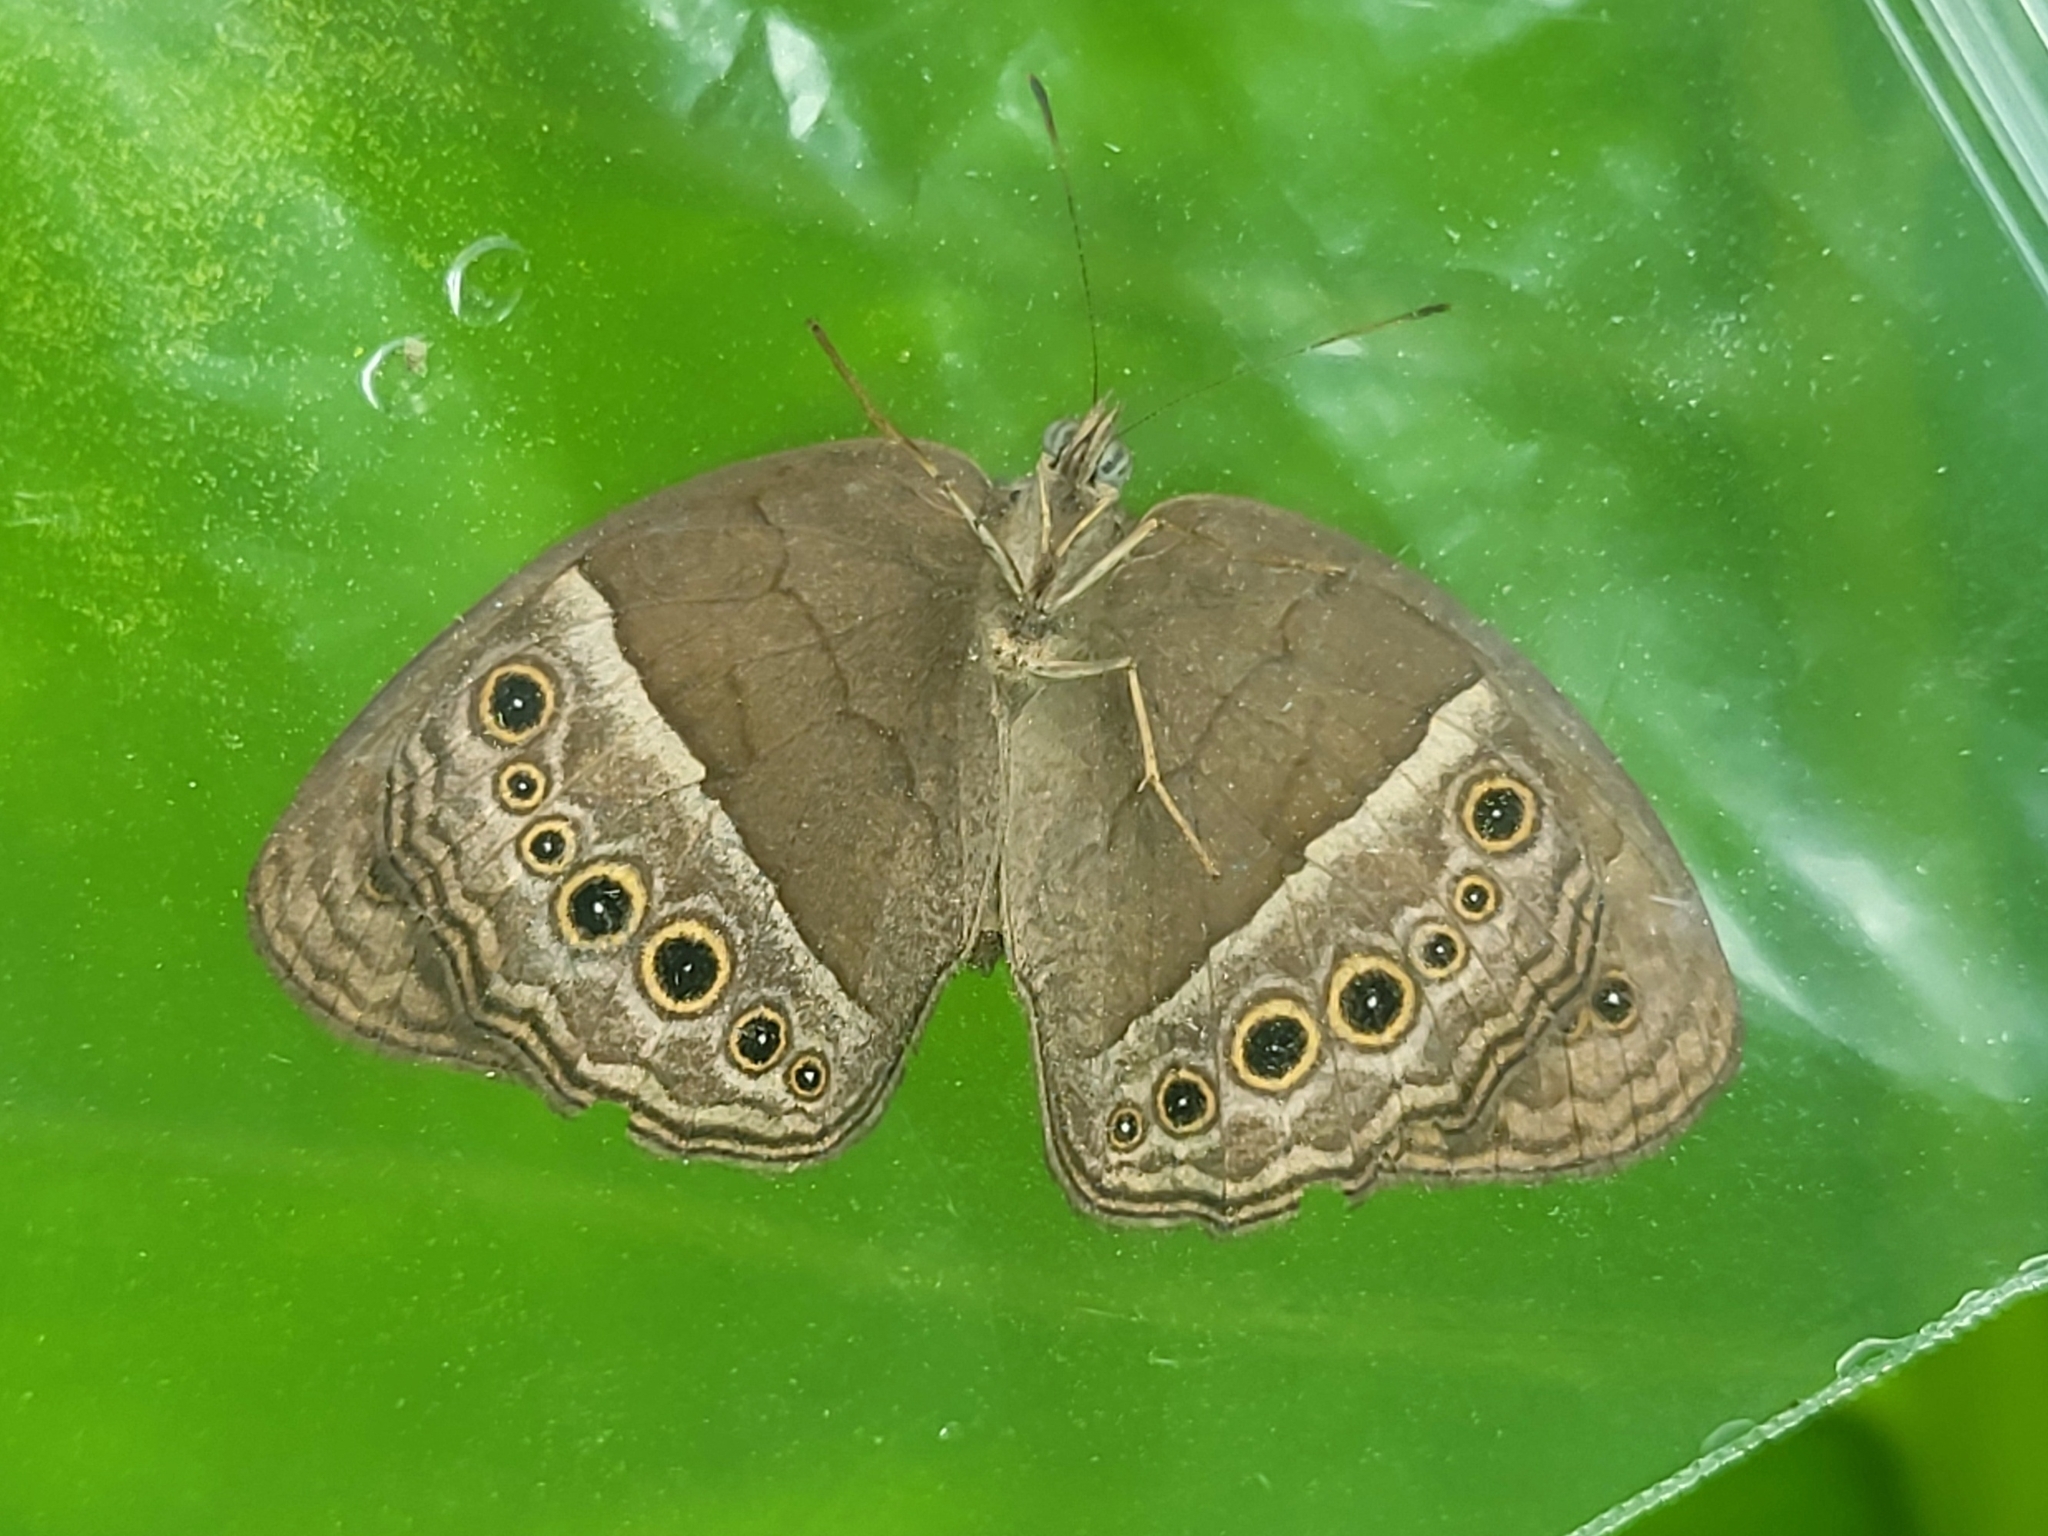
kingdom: Animalia
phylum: Arthropoda
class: Insecta
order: Lepidoptera
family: Nymphalidae
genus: Mycalesis
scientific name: Mycalesis perseoides
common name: Burmese bushbrown
